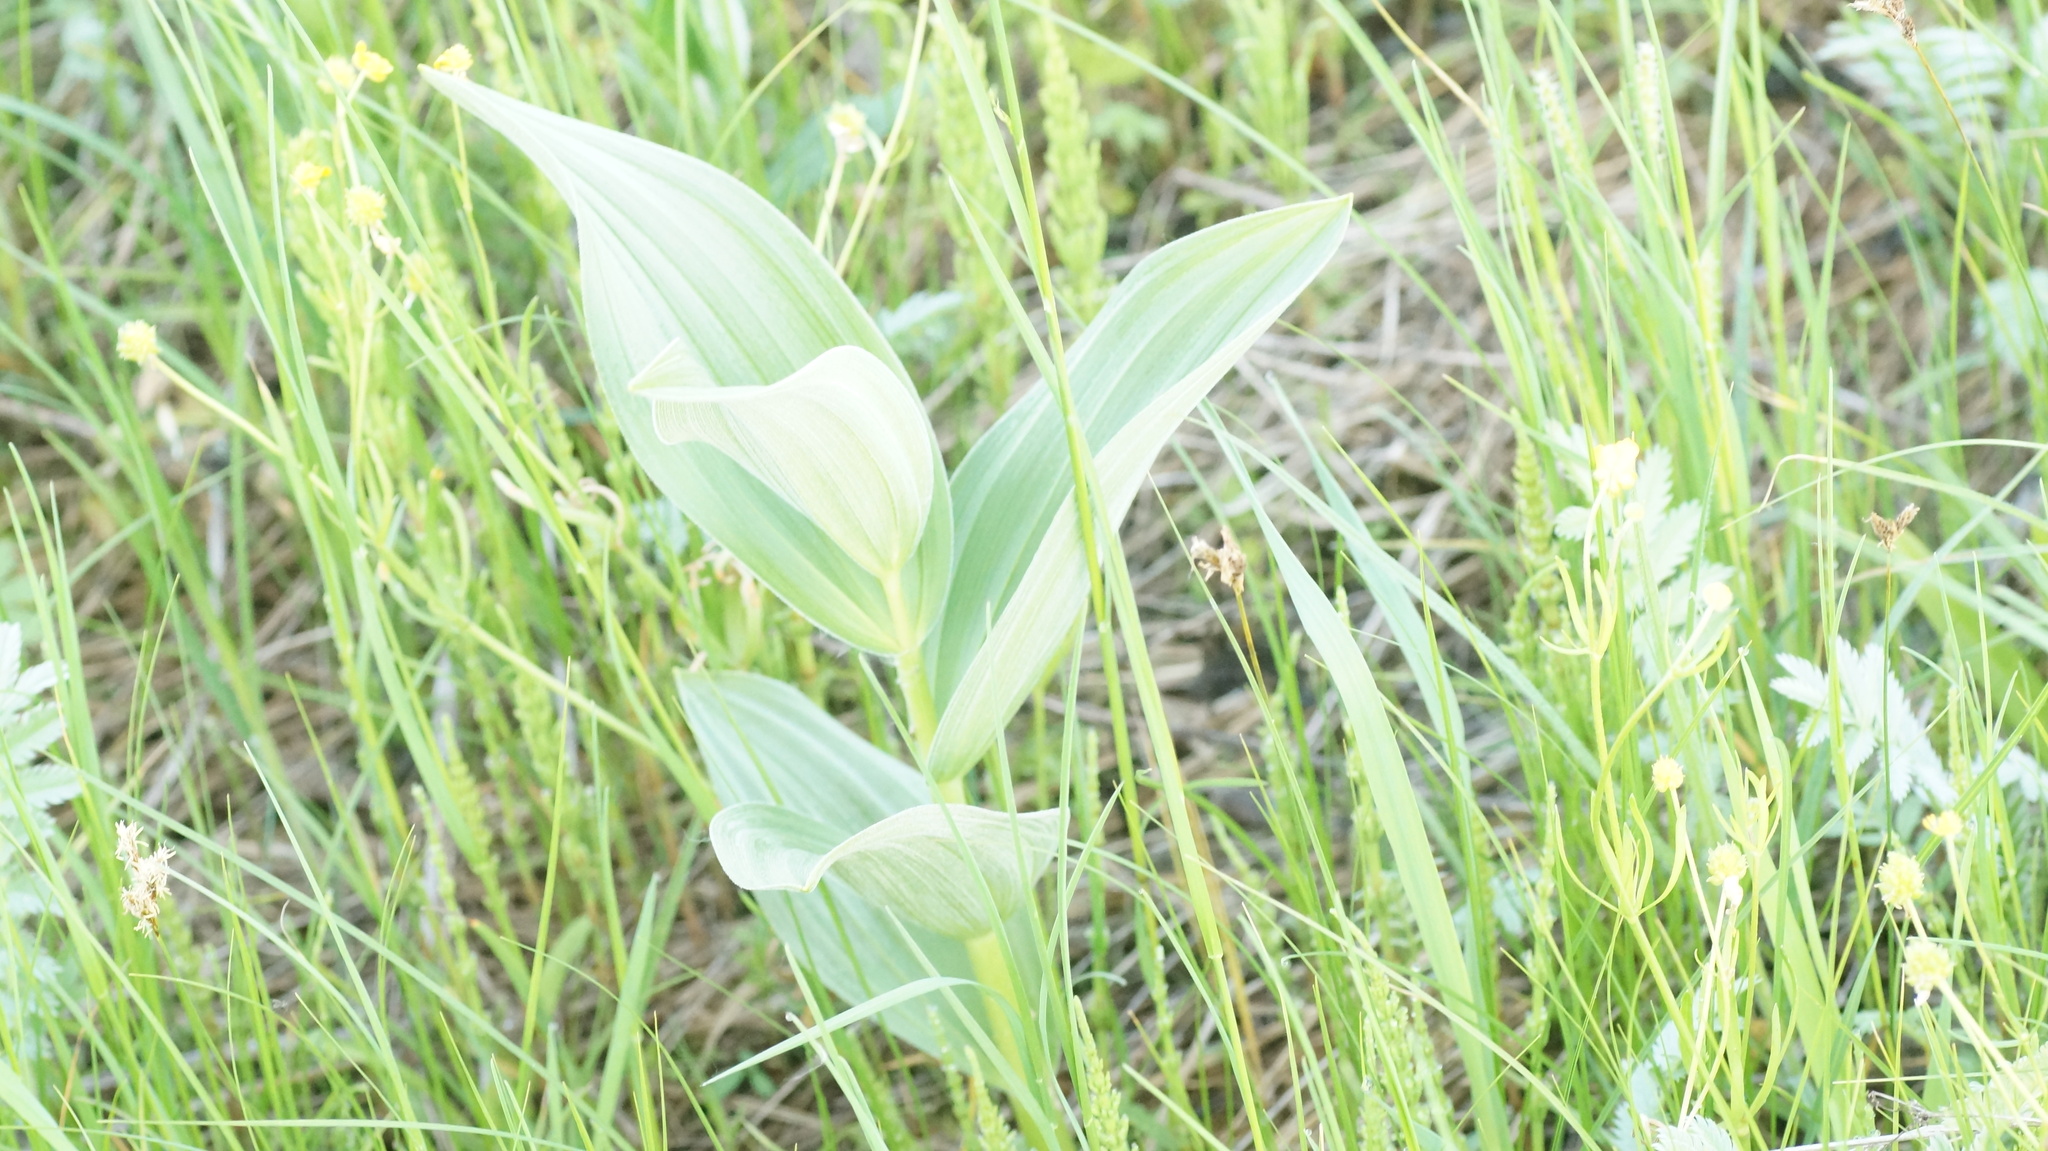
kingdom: Plantae
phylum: Tracheophyta
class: Liliopsida
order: Liliales
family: Melanthiaceae
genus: Veratrum
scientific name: Veratrum lobelianum
